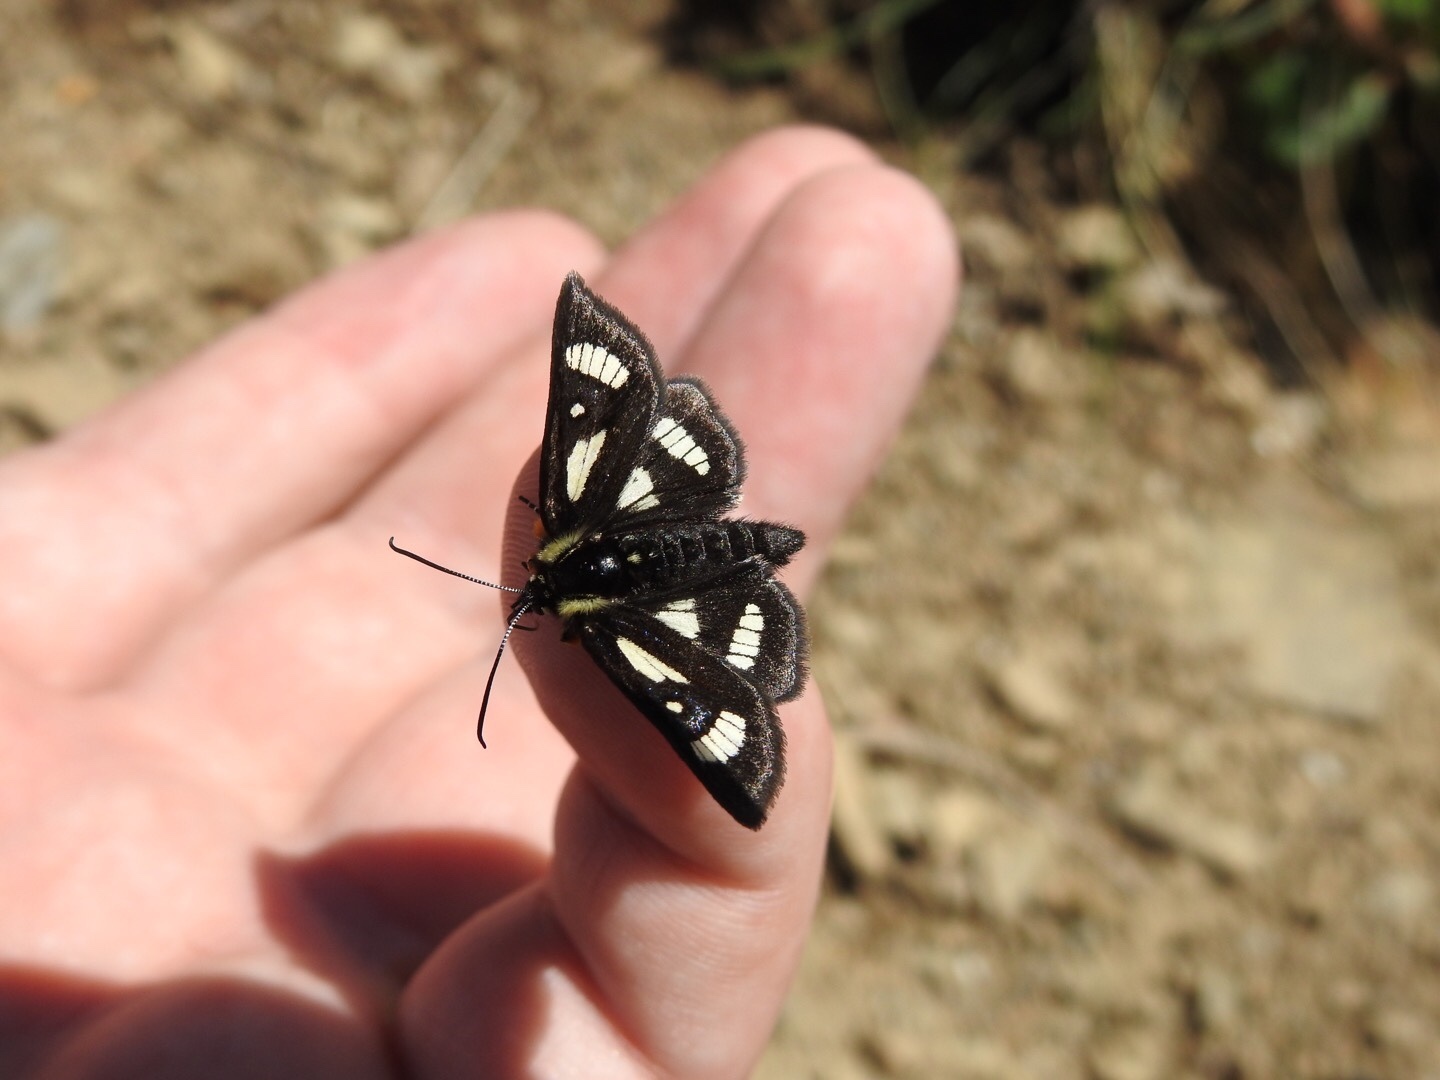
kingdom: Animalia
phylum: Arthropoda
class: Insecta
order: Lepidoptera
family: Noctuidae
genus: Alypia
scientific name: Alypia maccullochii
